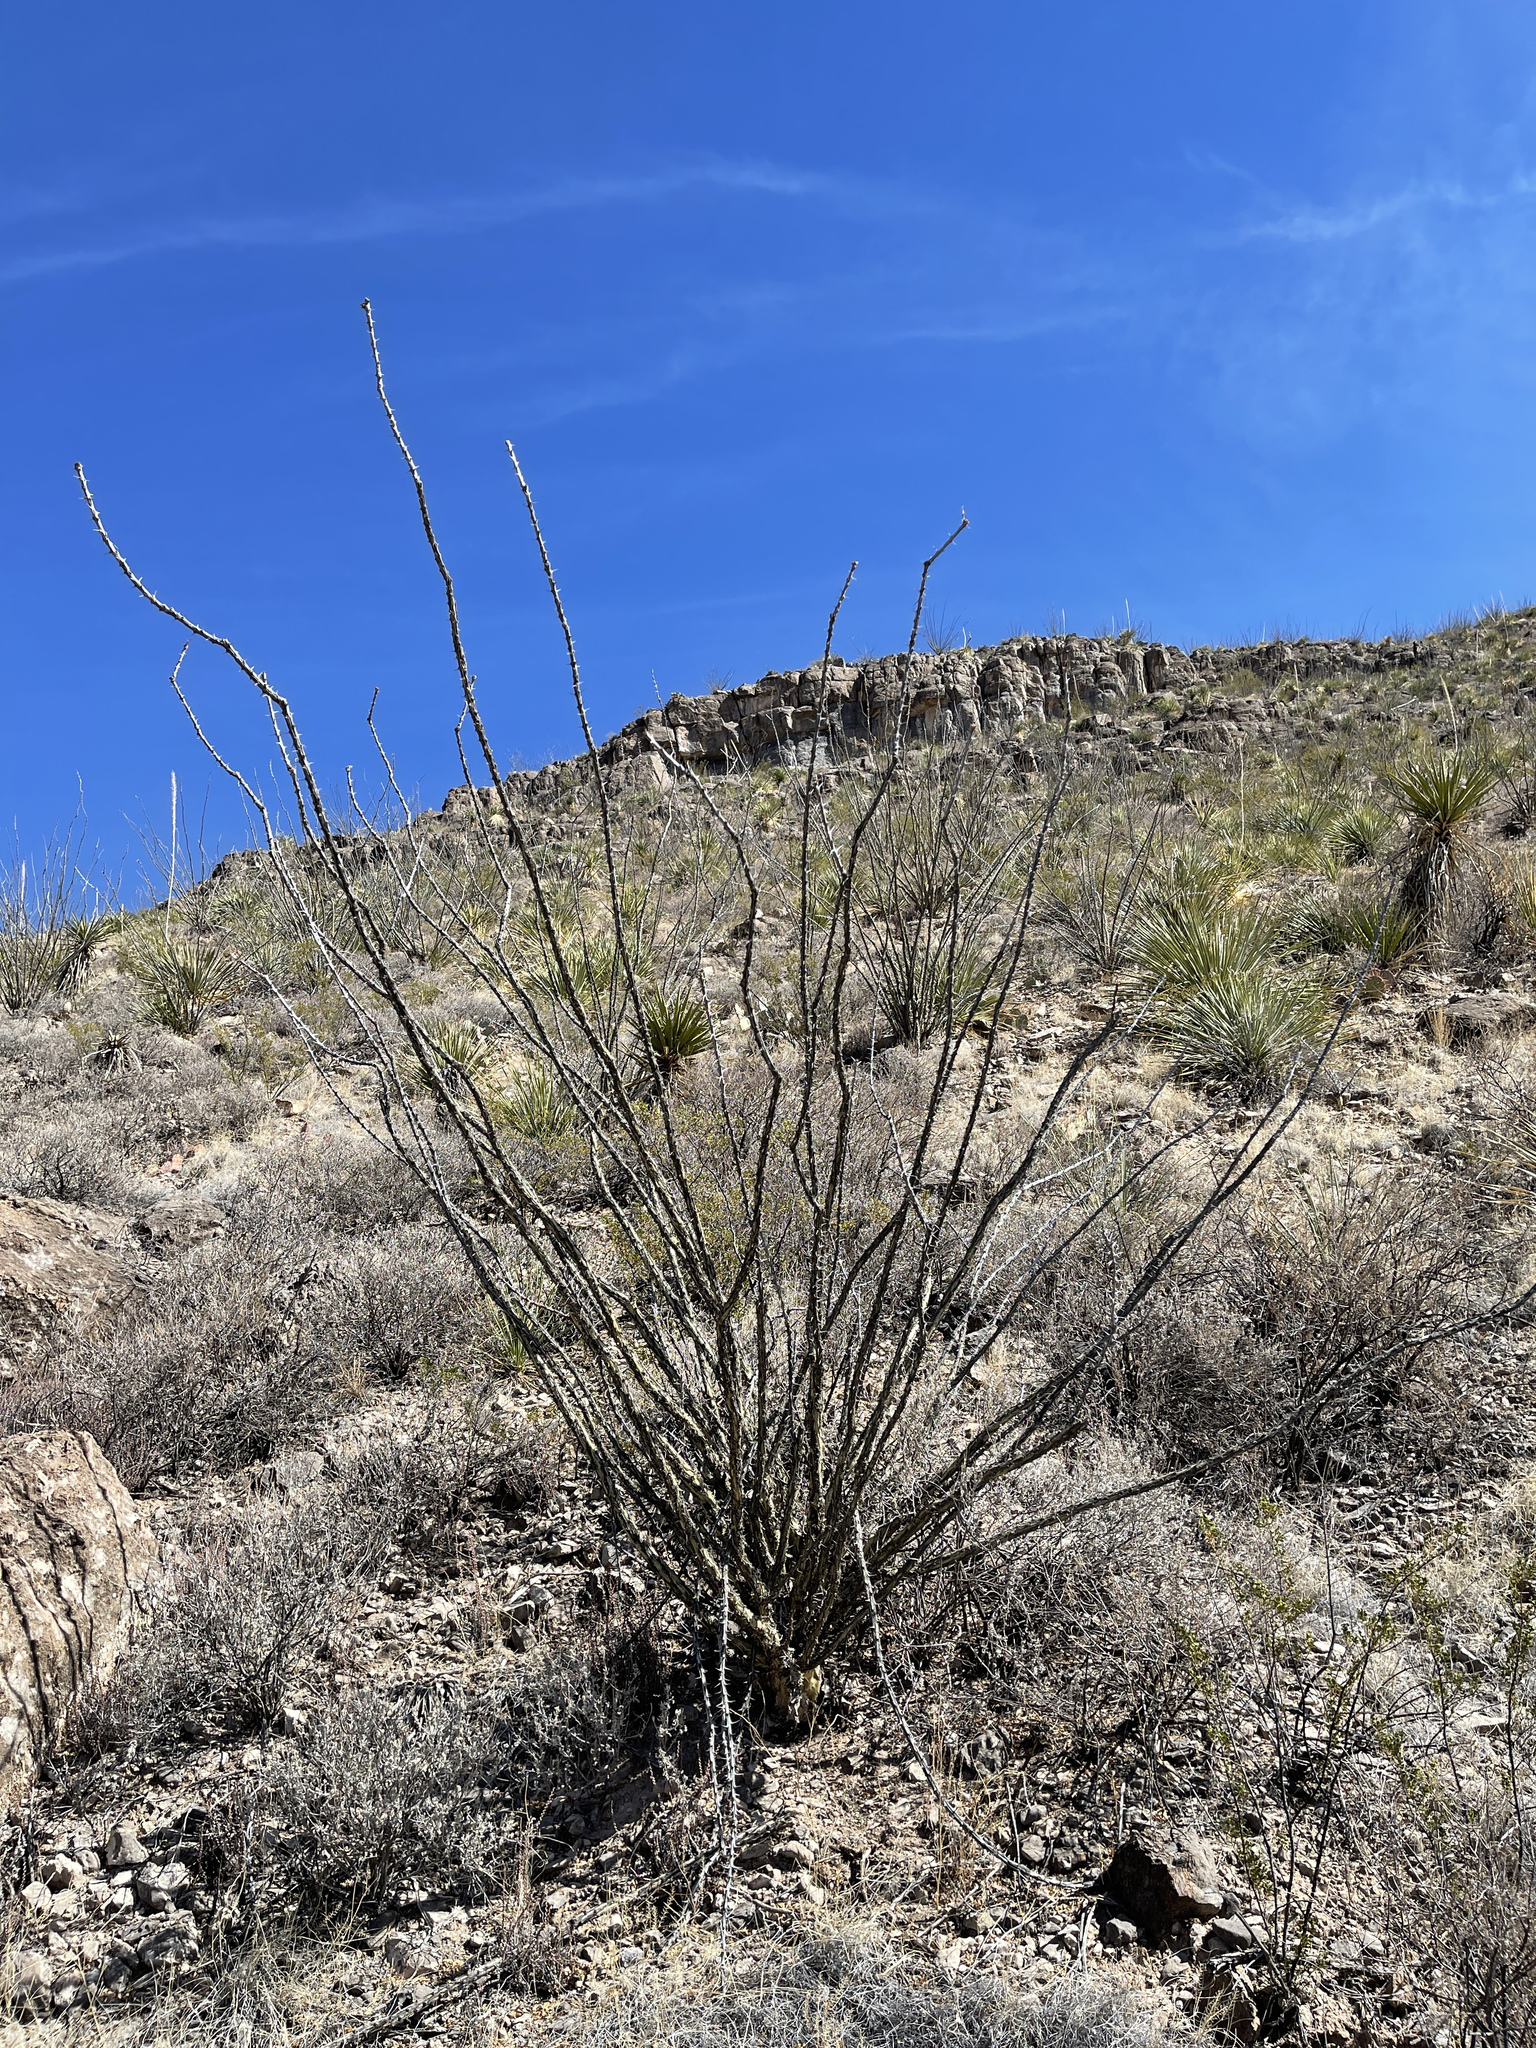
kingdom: Plantae
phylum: Tracheophyta
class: Magnoliopsida
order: Ericales
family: Fouquieriaceae
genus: Fouquieria
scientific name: Fouquieria splendens
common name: Vine-cactus
